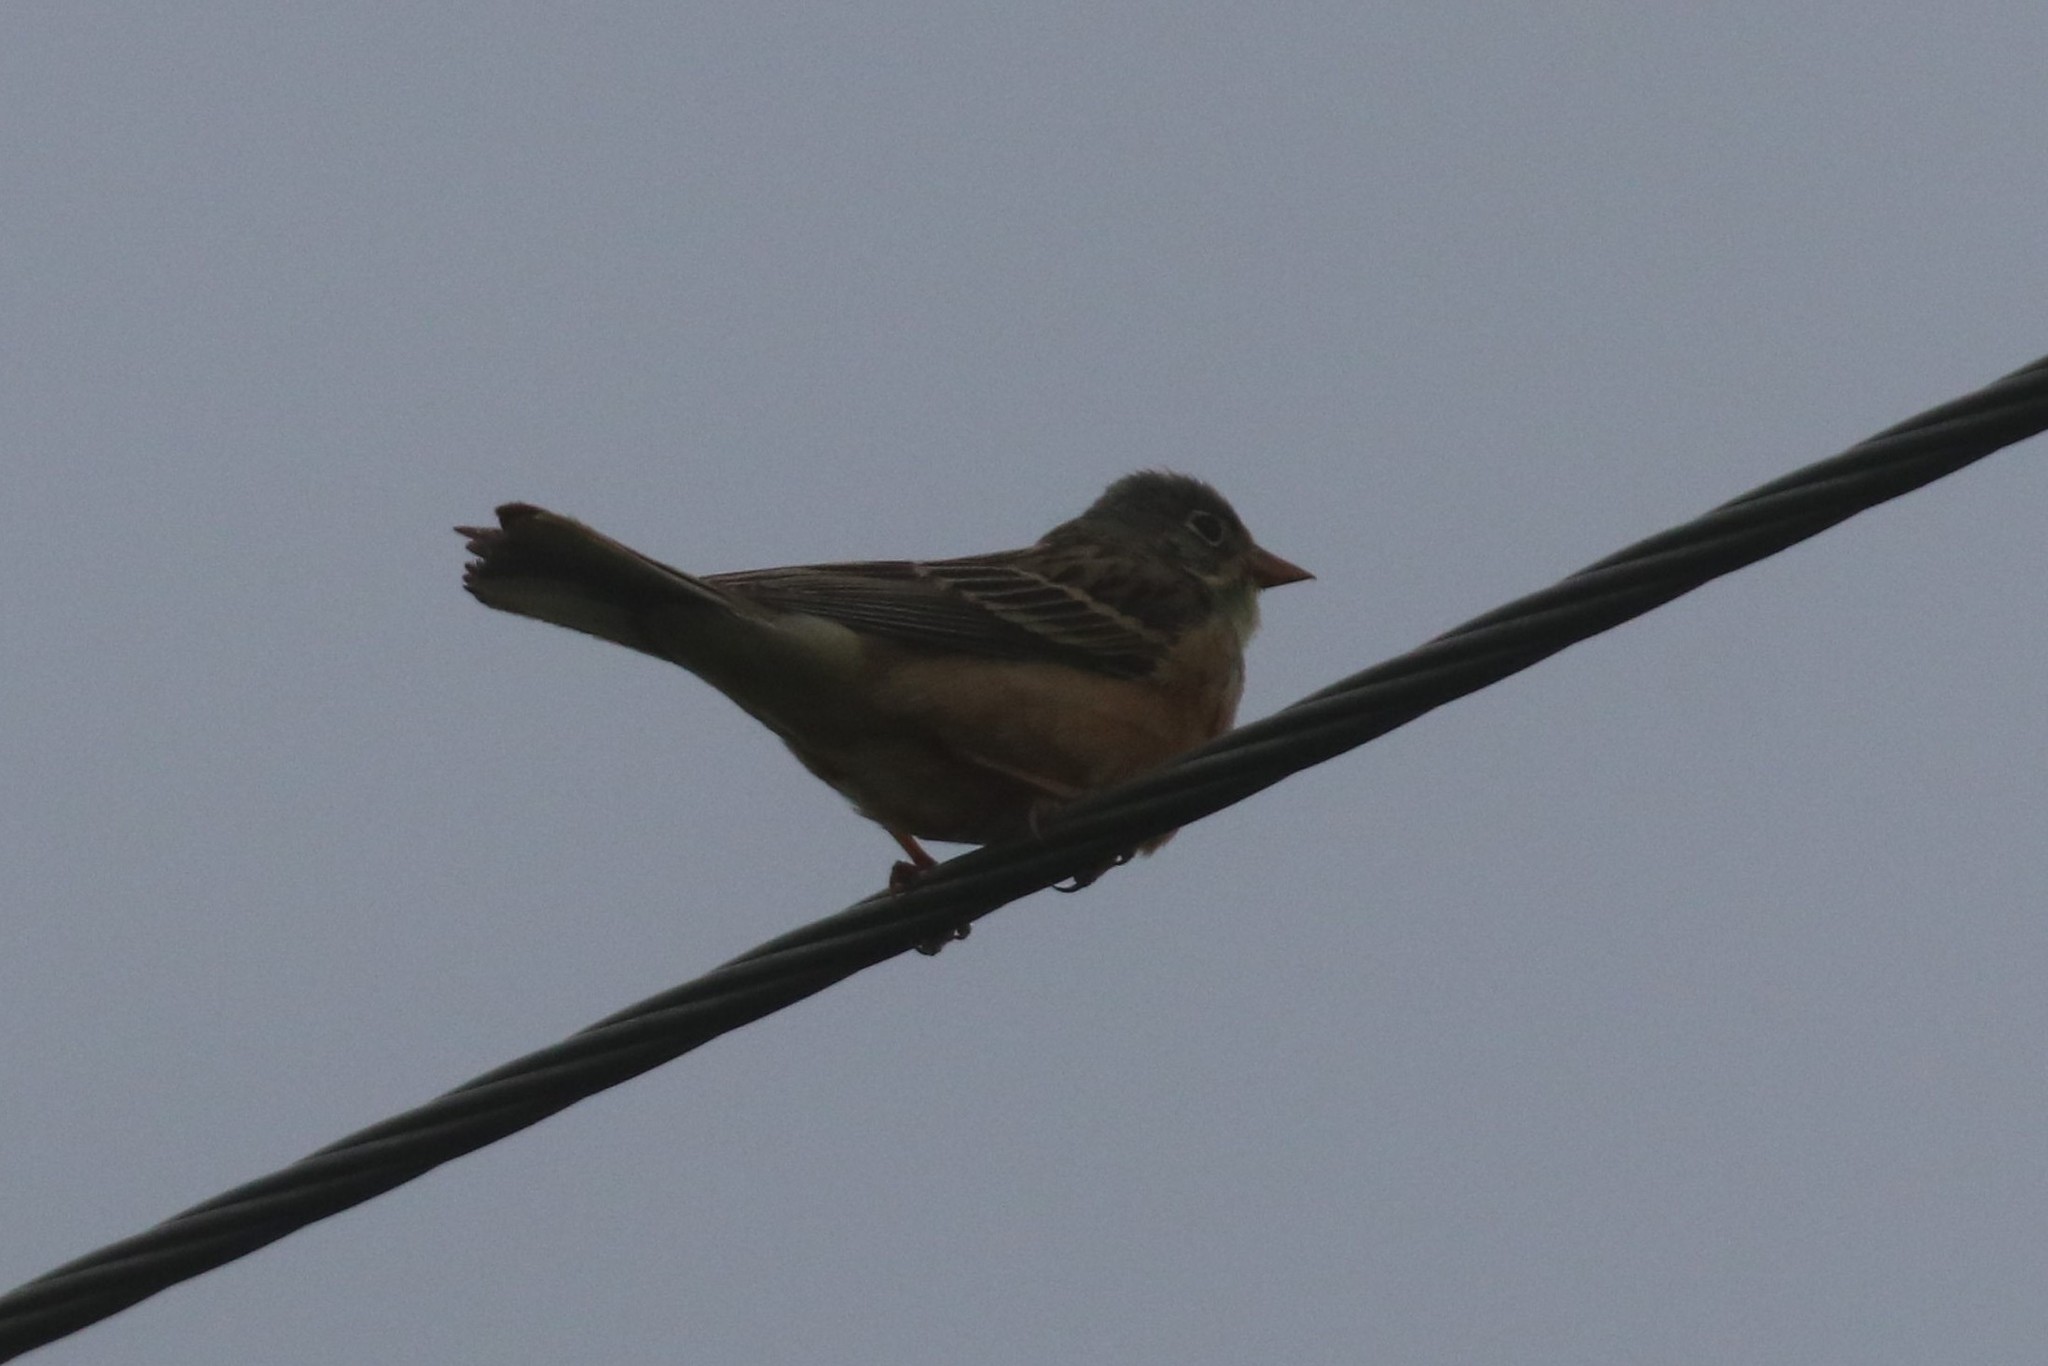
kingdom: Animalia
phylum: Chordata
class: Aves
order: Passeriformes
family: Emberizidae
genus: Emberiza
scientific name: Emberiza hortulana
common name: Ortolan bunting
